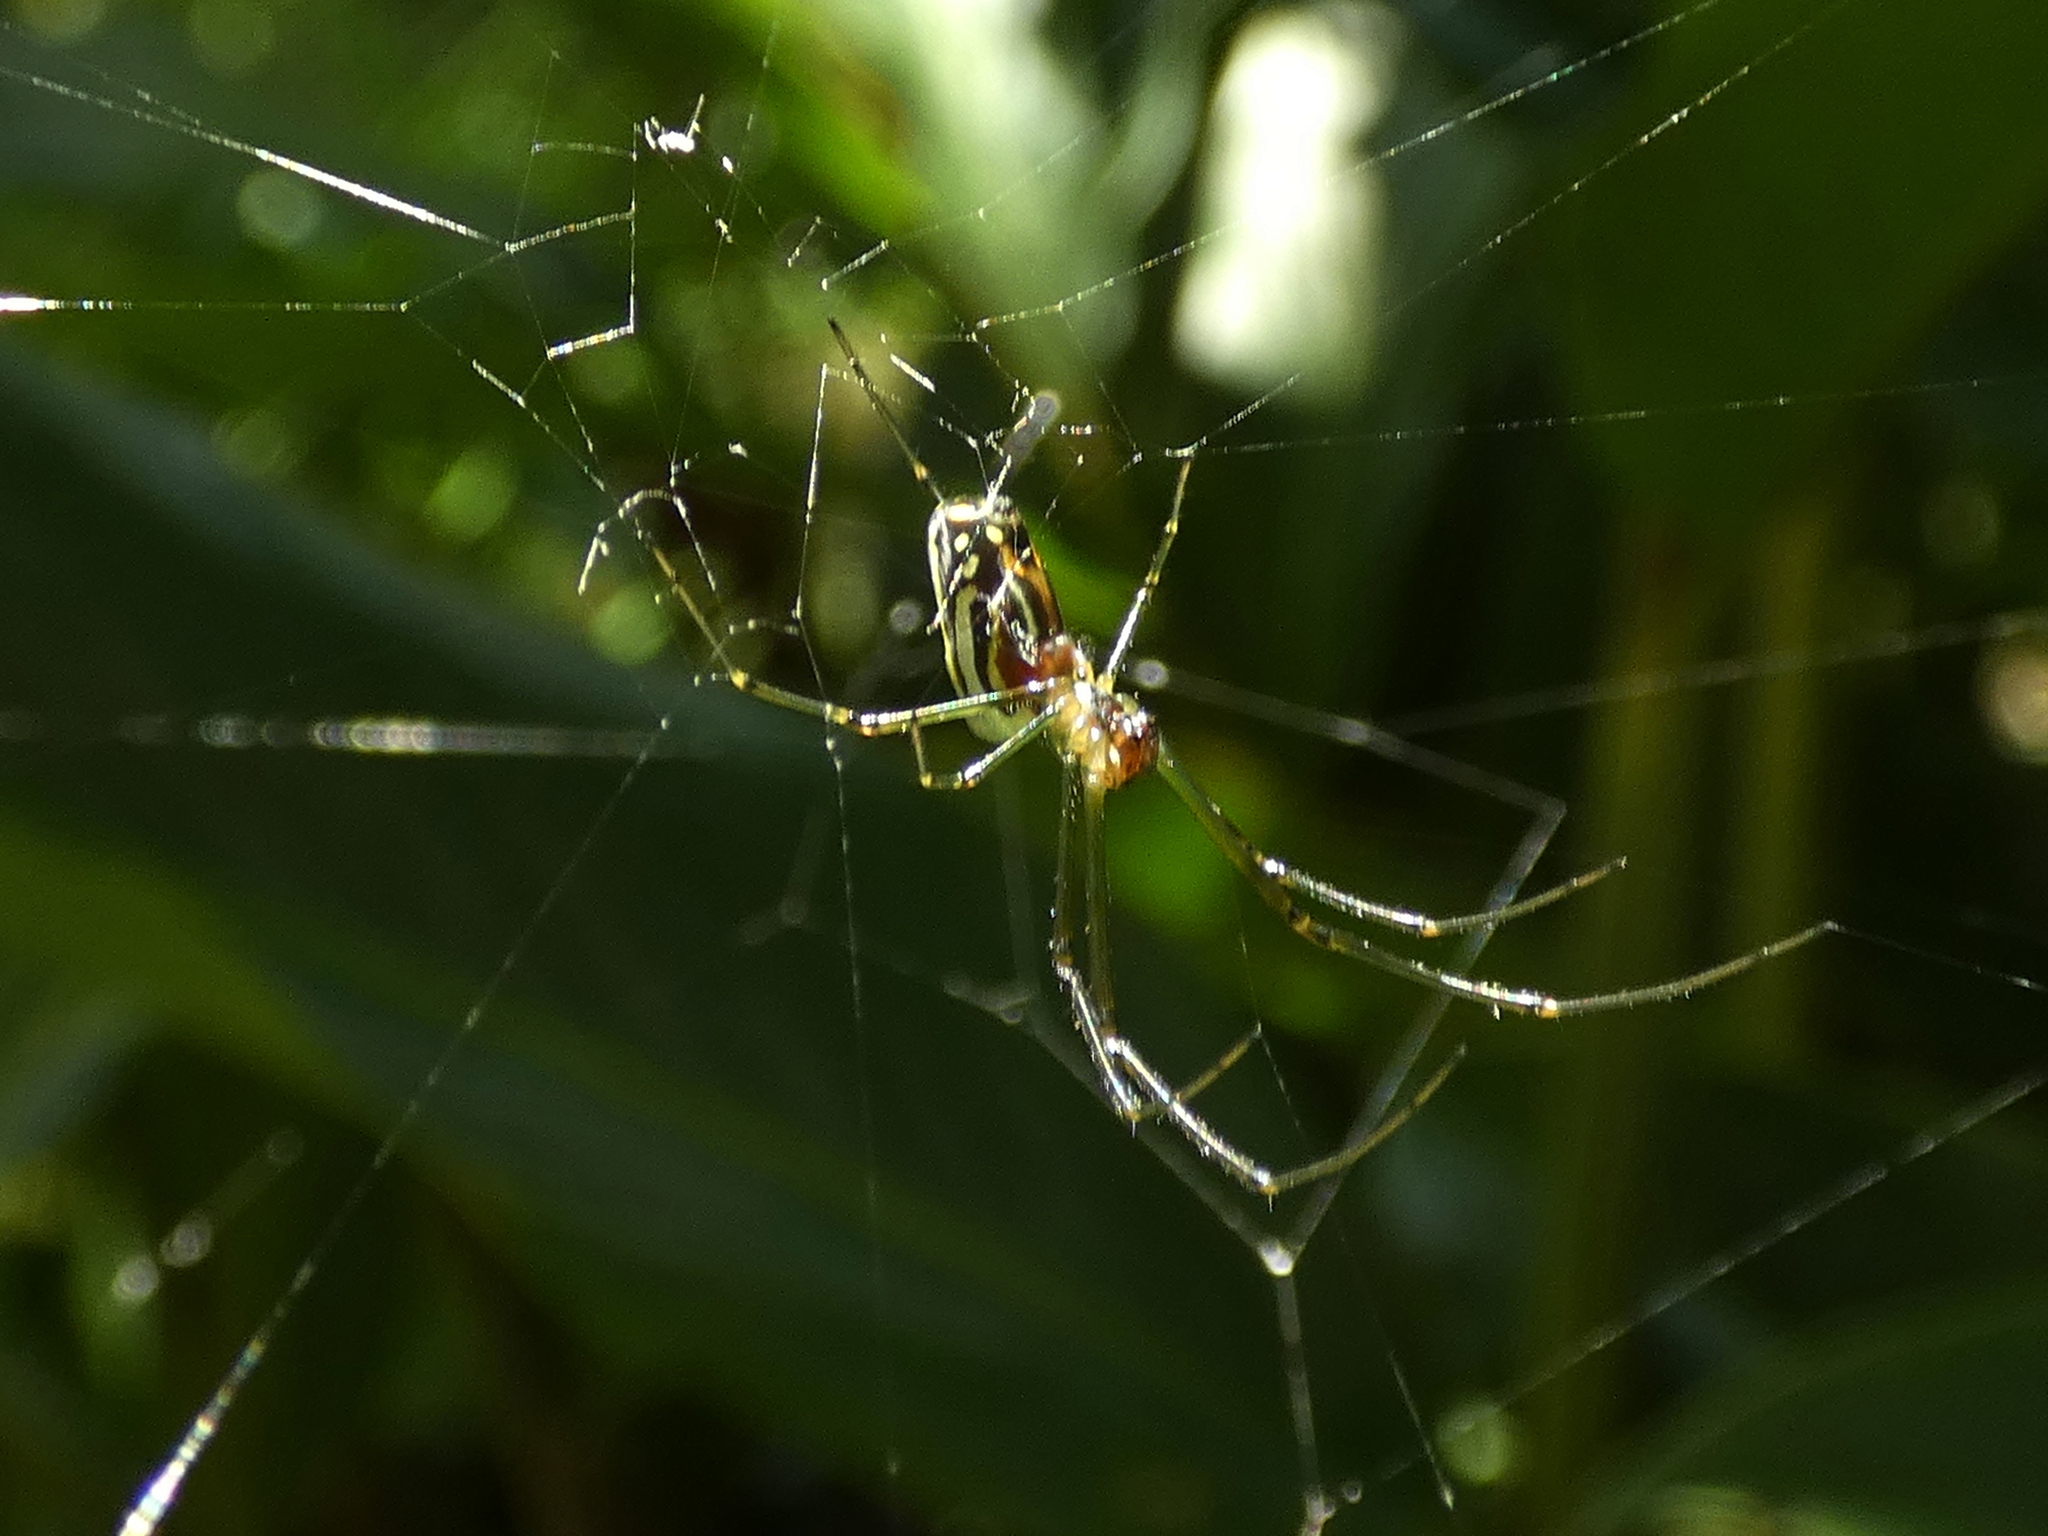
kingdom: Animalia
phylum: Arthropoda
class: Arachnida
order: Araneae
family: Tetragnathidae
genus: Leucauge
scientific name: Leucauge argyra
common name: Longjawed orb weavers
